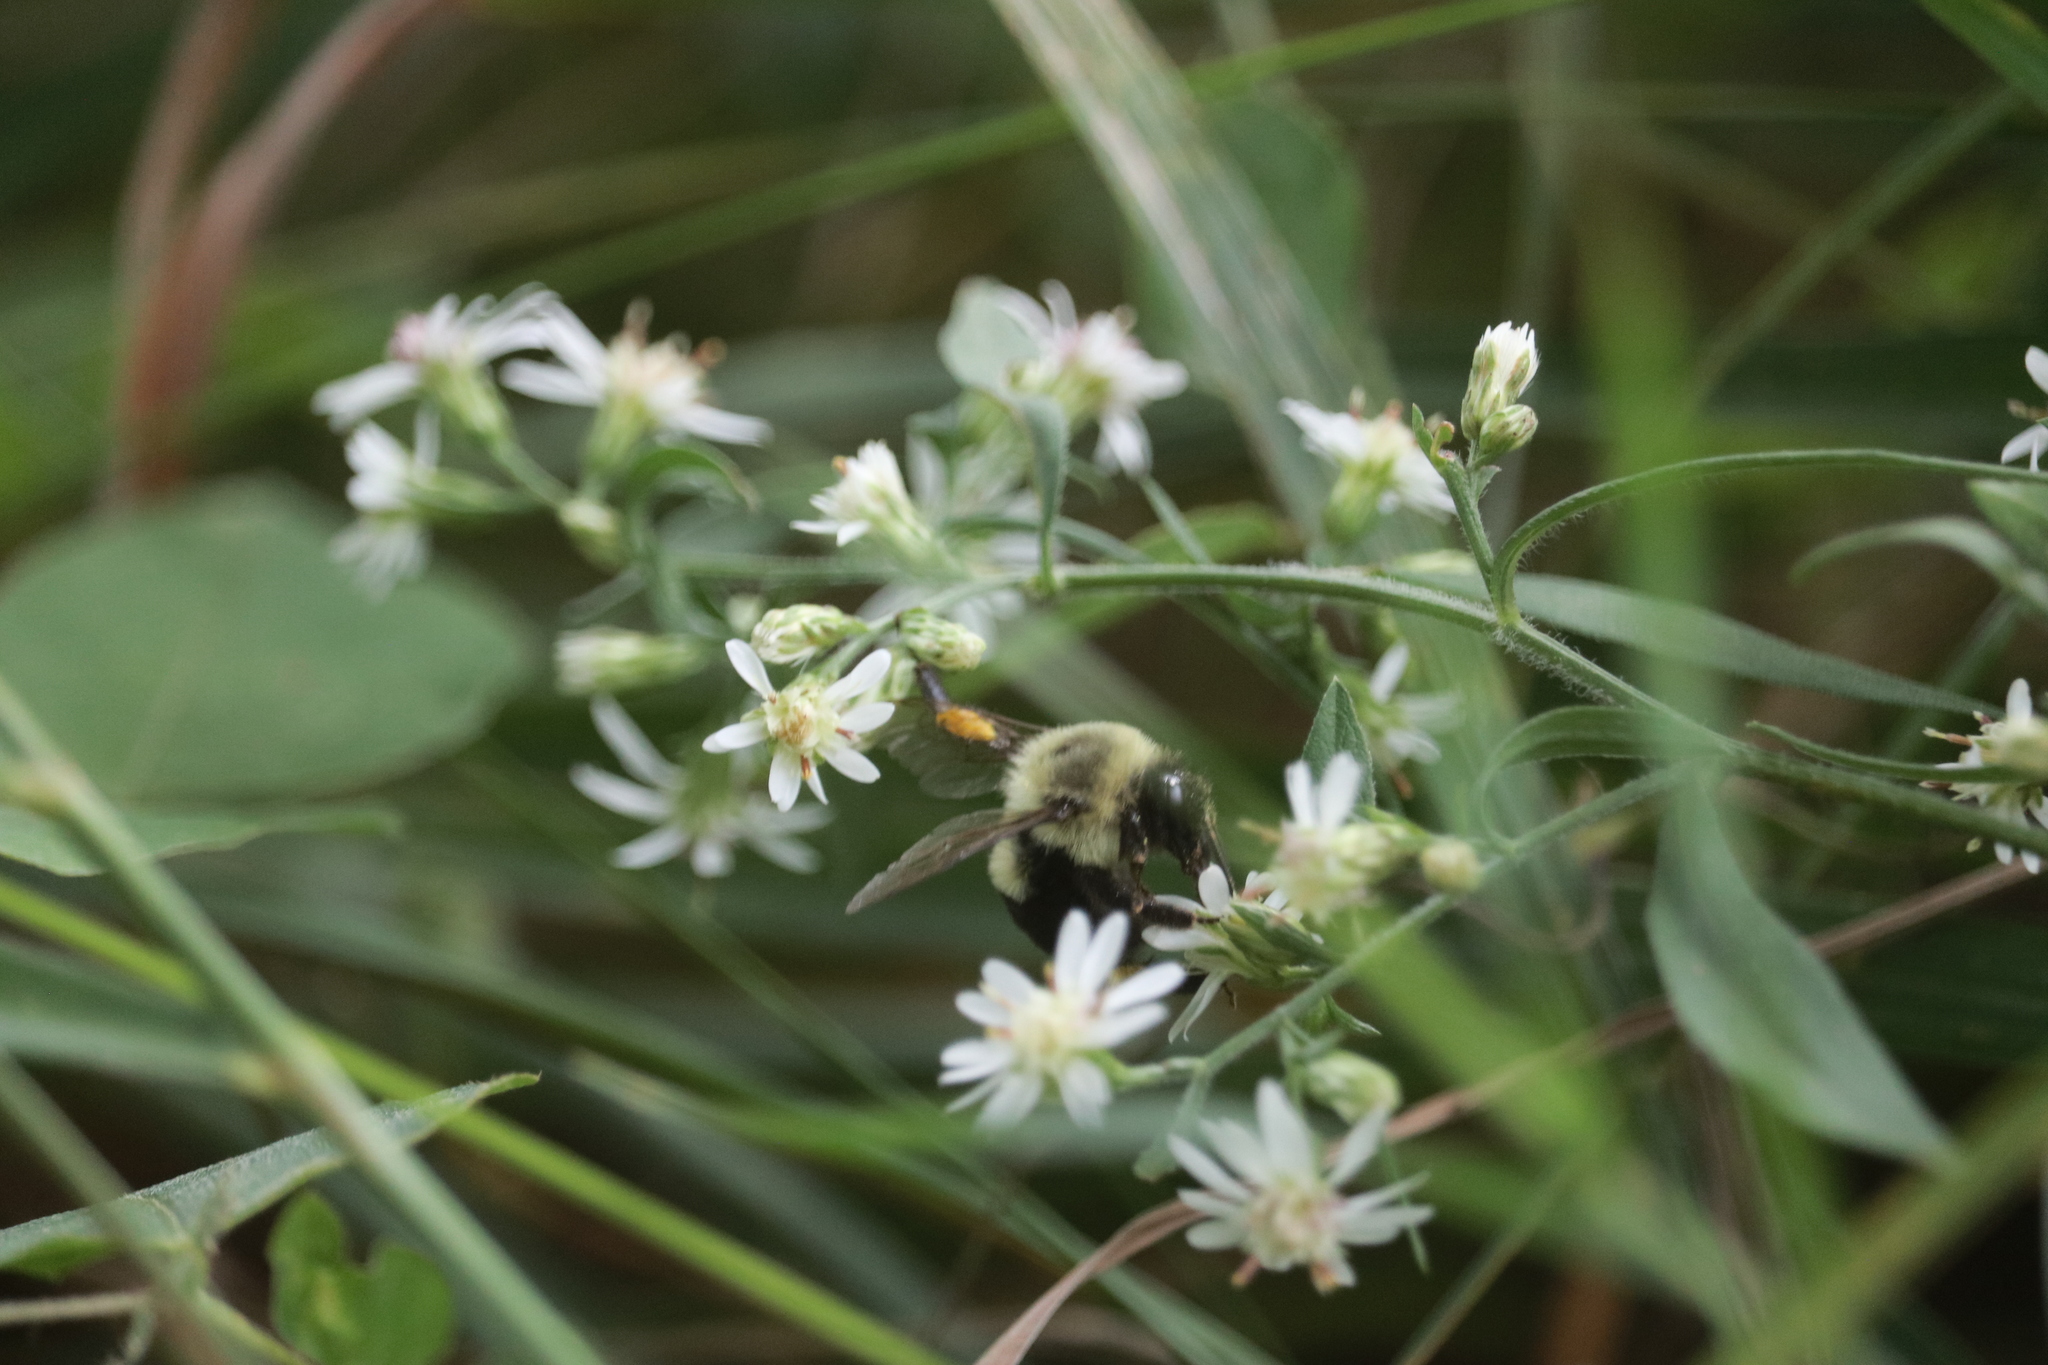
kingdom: Animalia
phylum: Arthropoda
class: Insecta
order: Hymenoptera
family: Apidae
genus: Bombus
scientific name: Bombus impatiens
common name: Common eastern bumble bee
